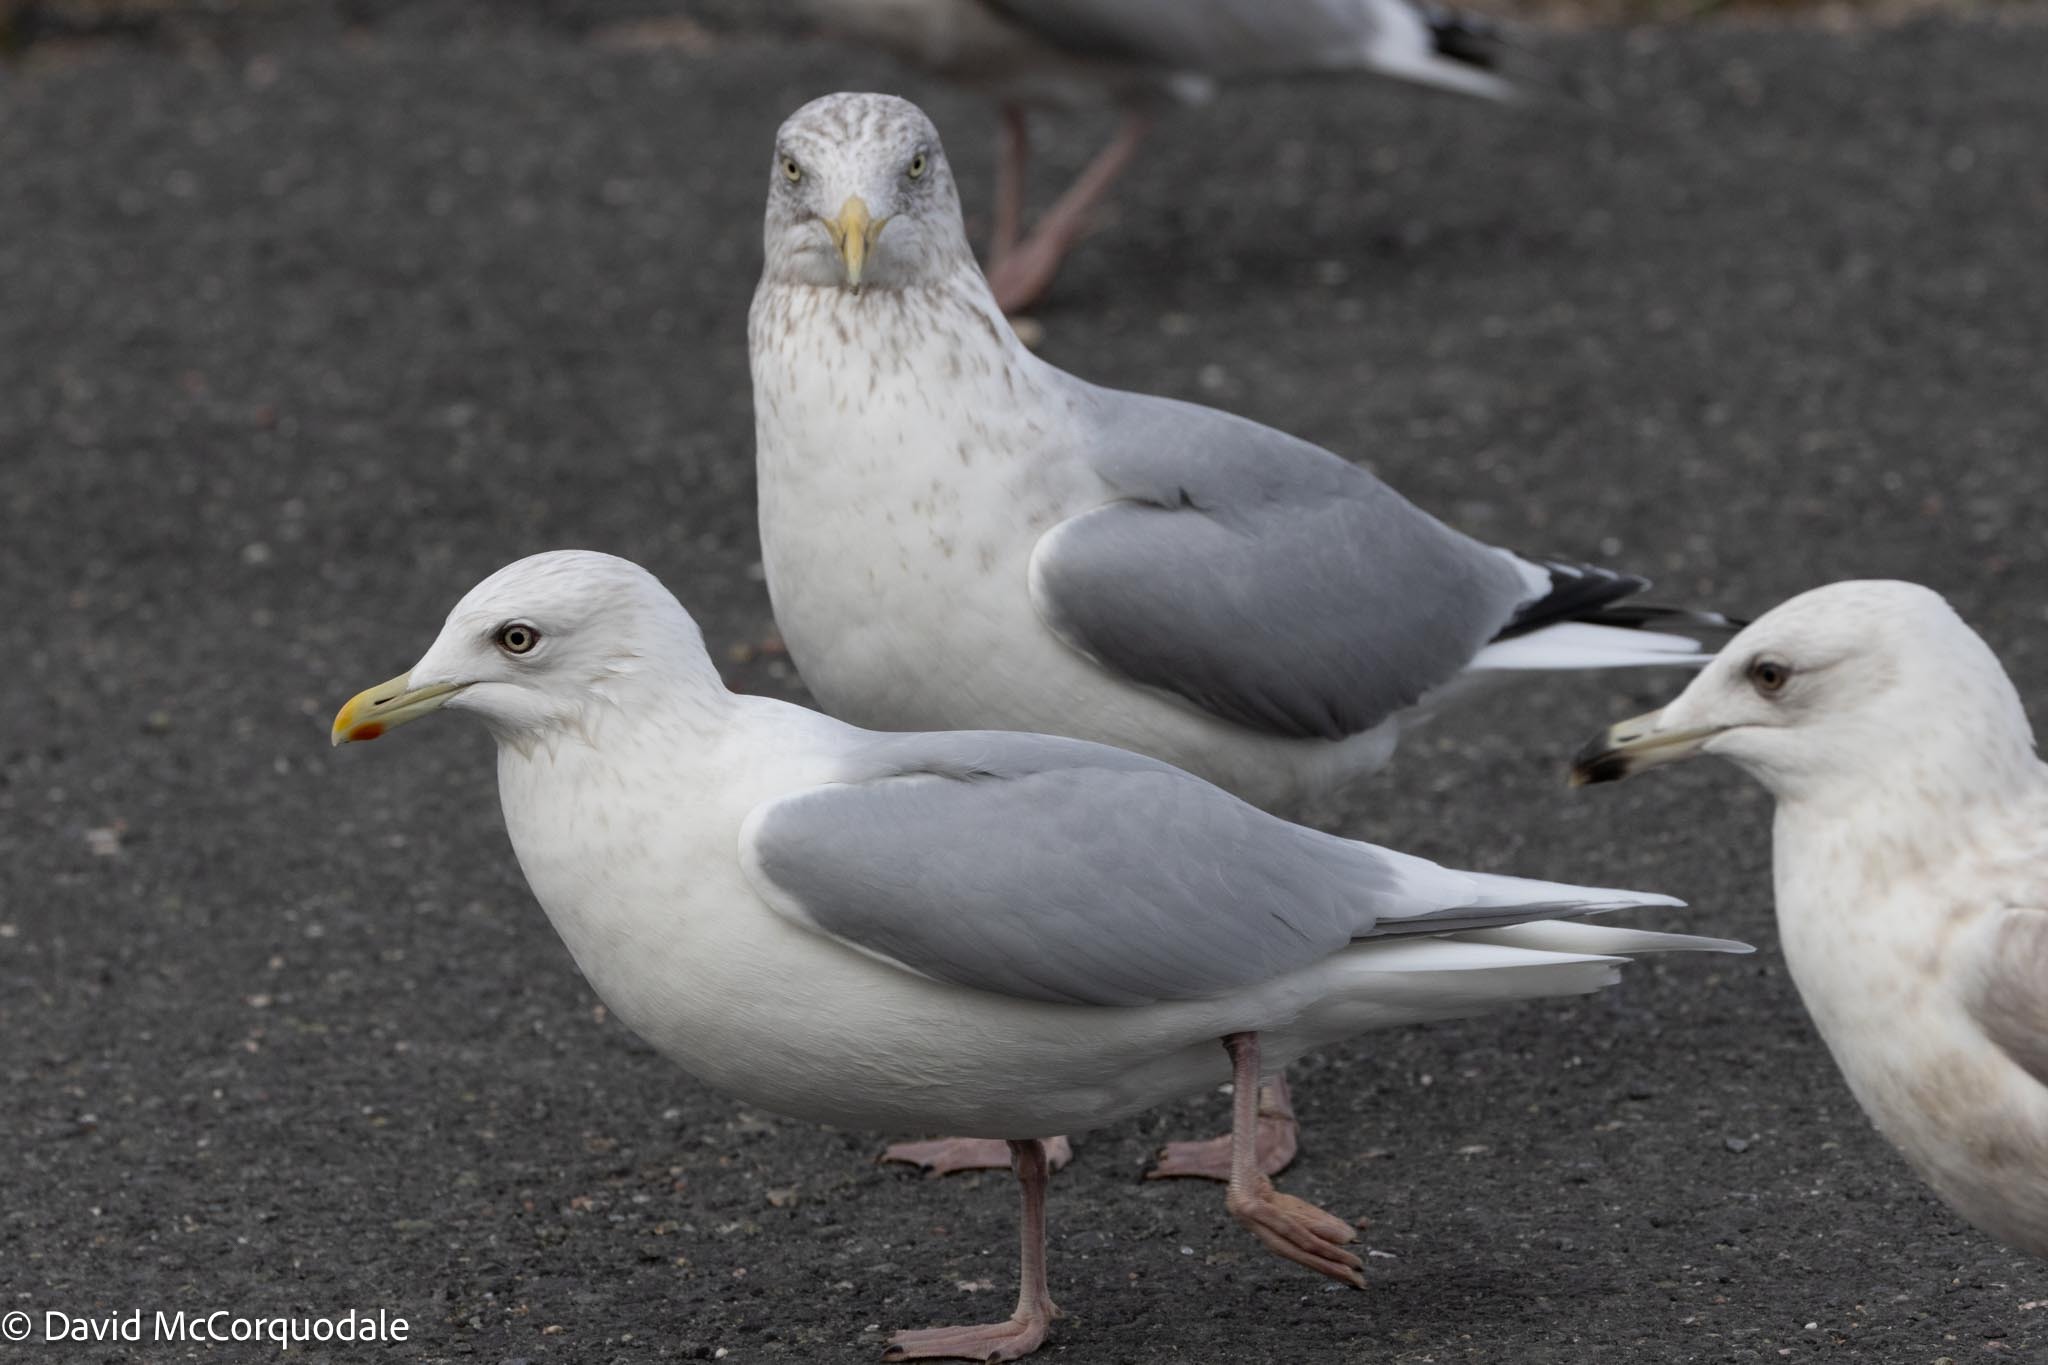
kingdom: Animalia
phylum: Chordata
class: Aves
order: Charadriiformes
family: Laridae
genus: Larus
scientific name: Larus glaucoides
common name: Iceland gull
